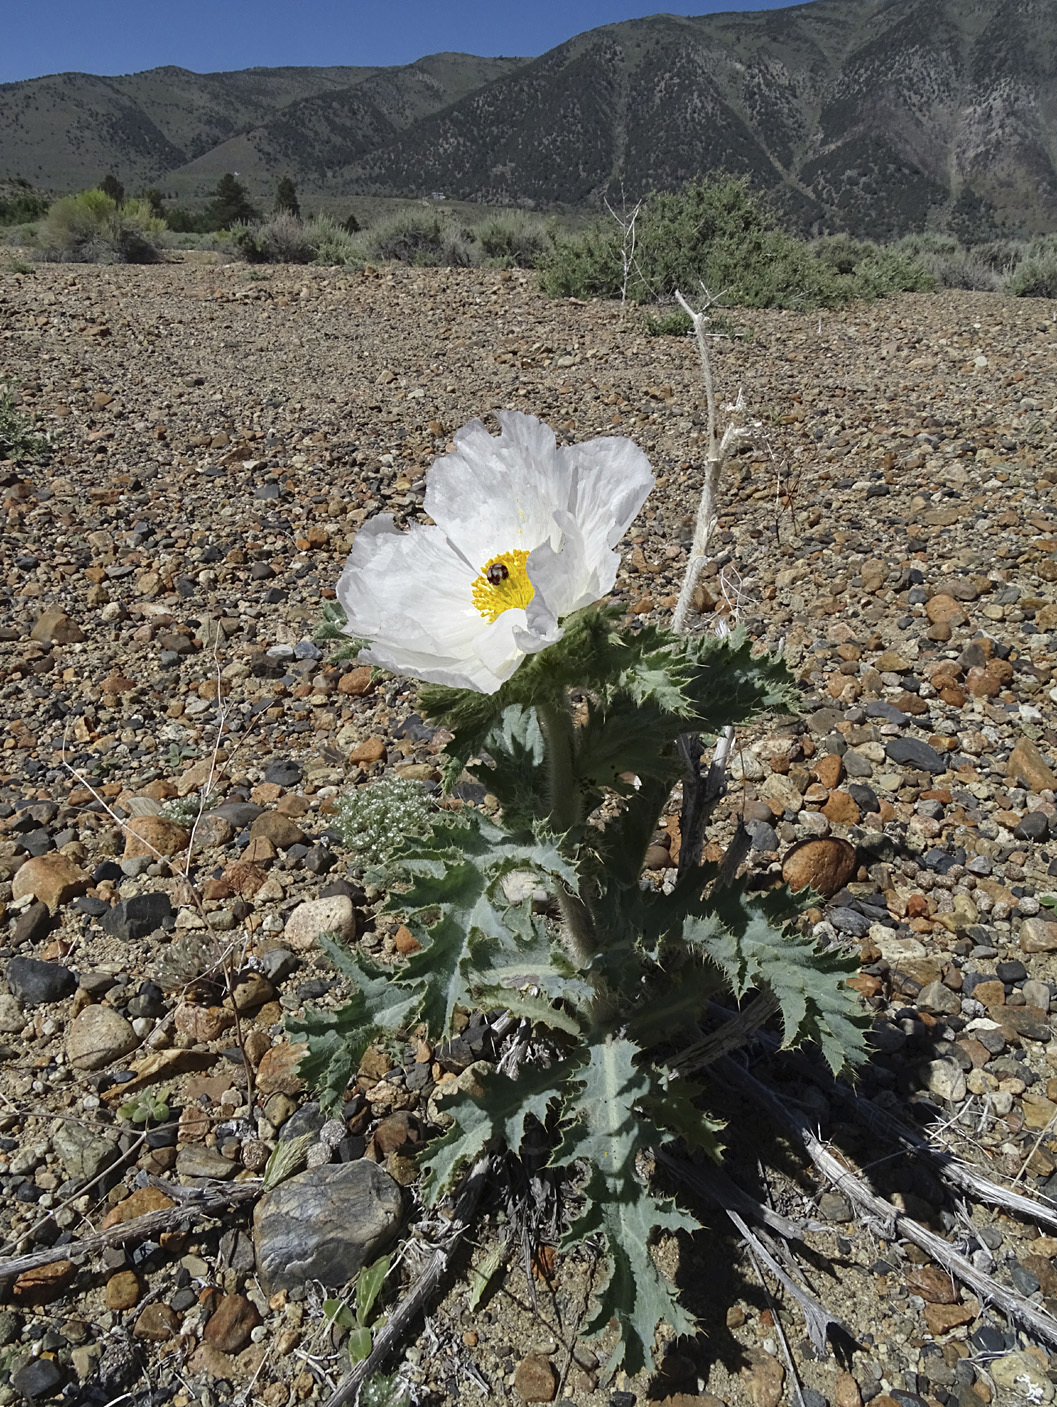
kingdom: Plantae
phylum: Tracheophyta
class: Magnoliopsida
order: Ranunculales
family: Papaveraceae
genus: Argemone
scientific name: Argemone munita
